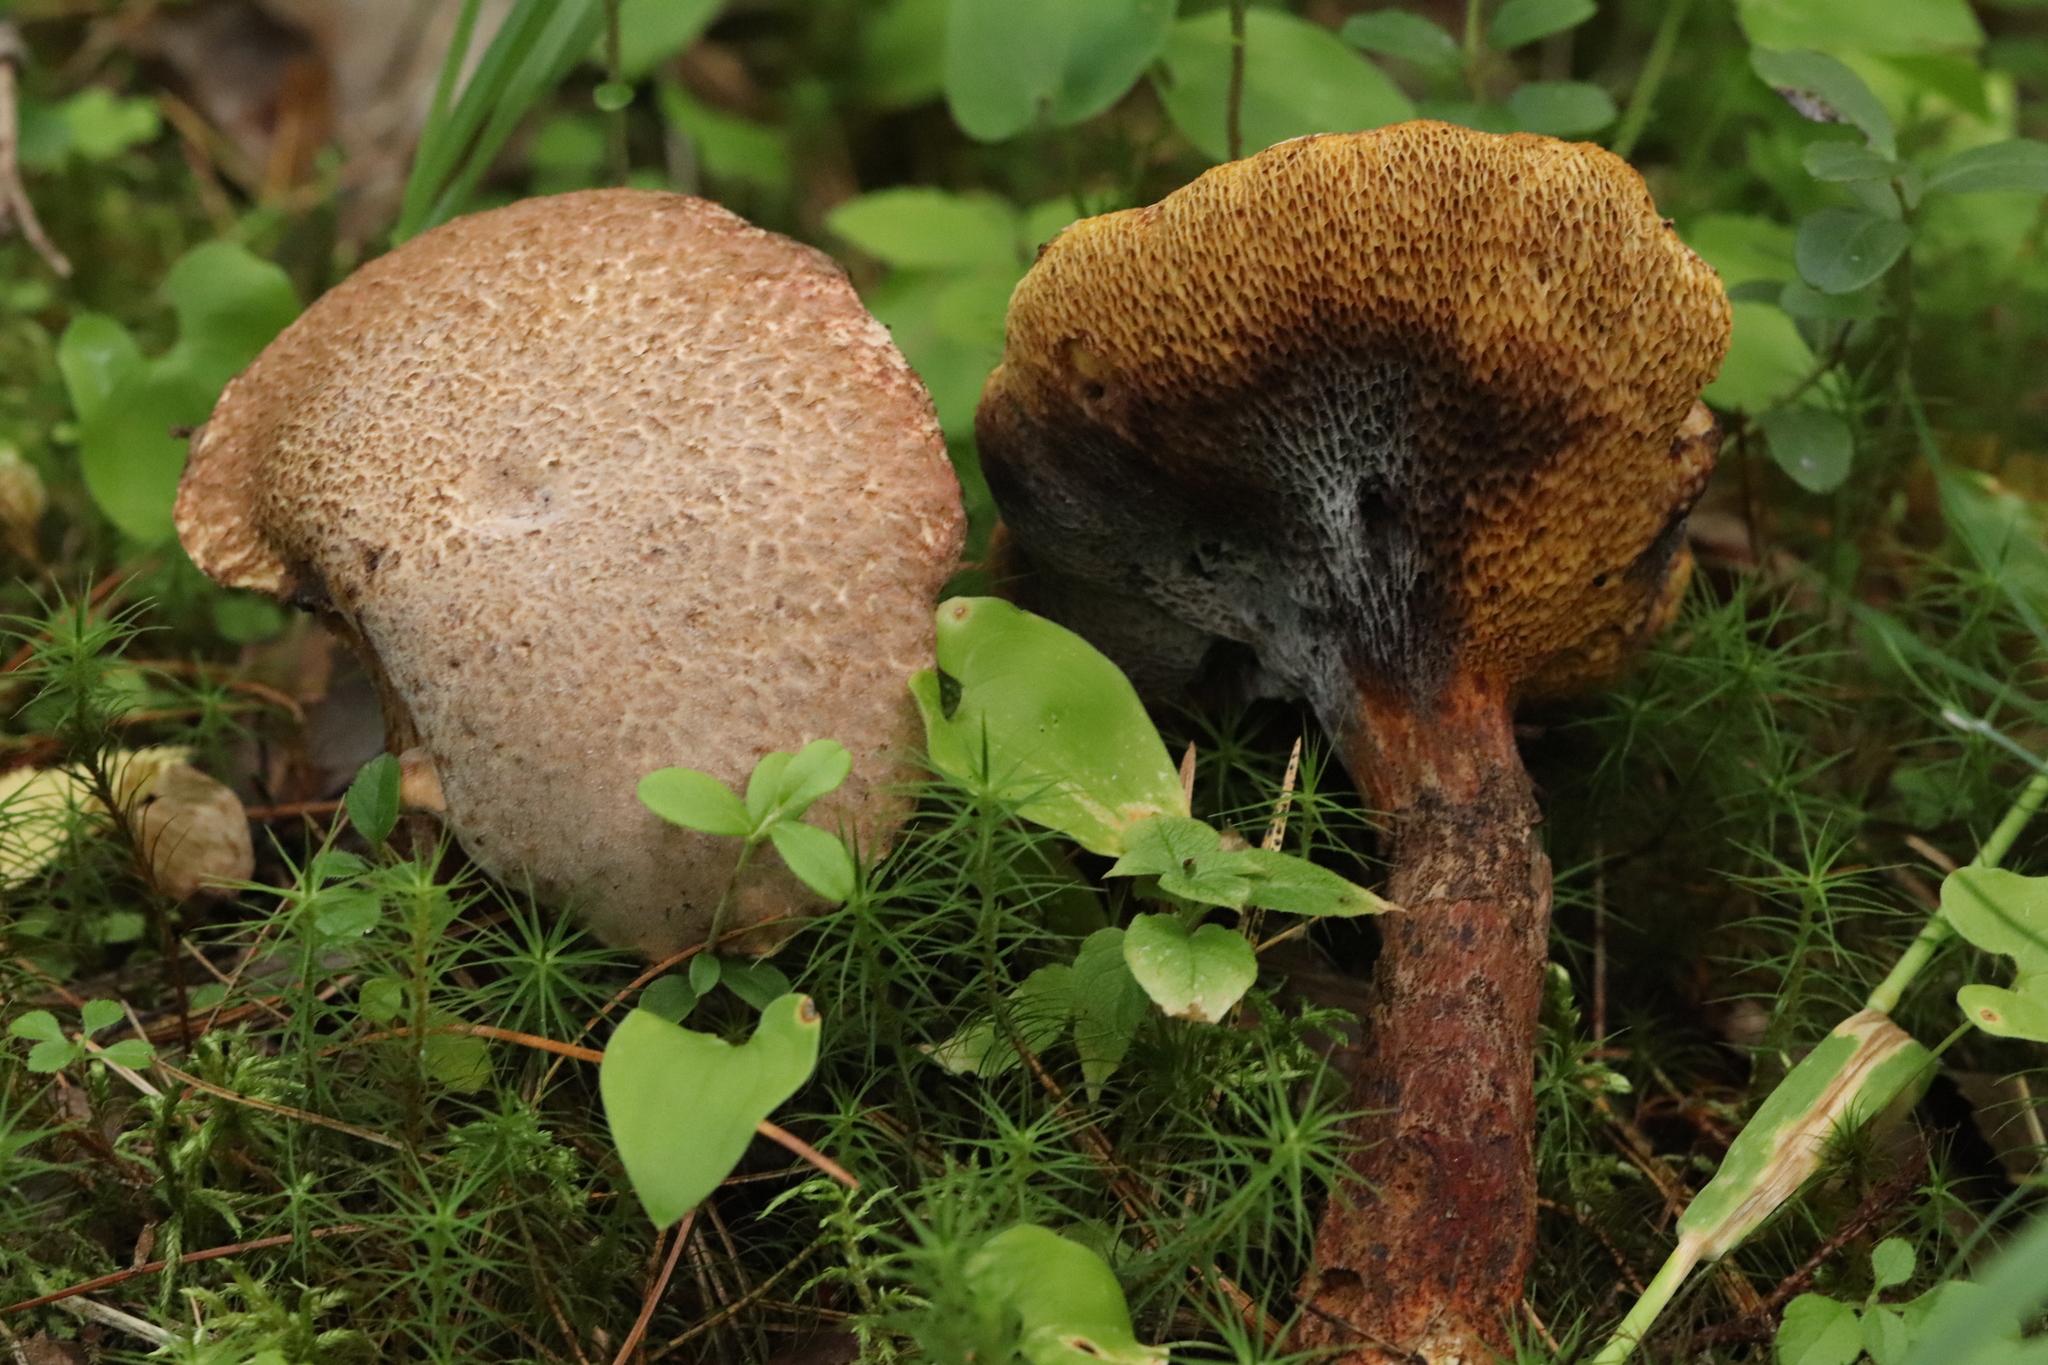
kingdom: Fungi
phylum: Basidiomycota
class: Agaricomycetes
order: Boletales
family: Suillaceae
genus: Suillus
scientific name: Suillus spraguei
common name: Painted suillus
